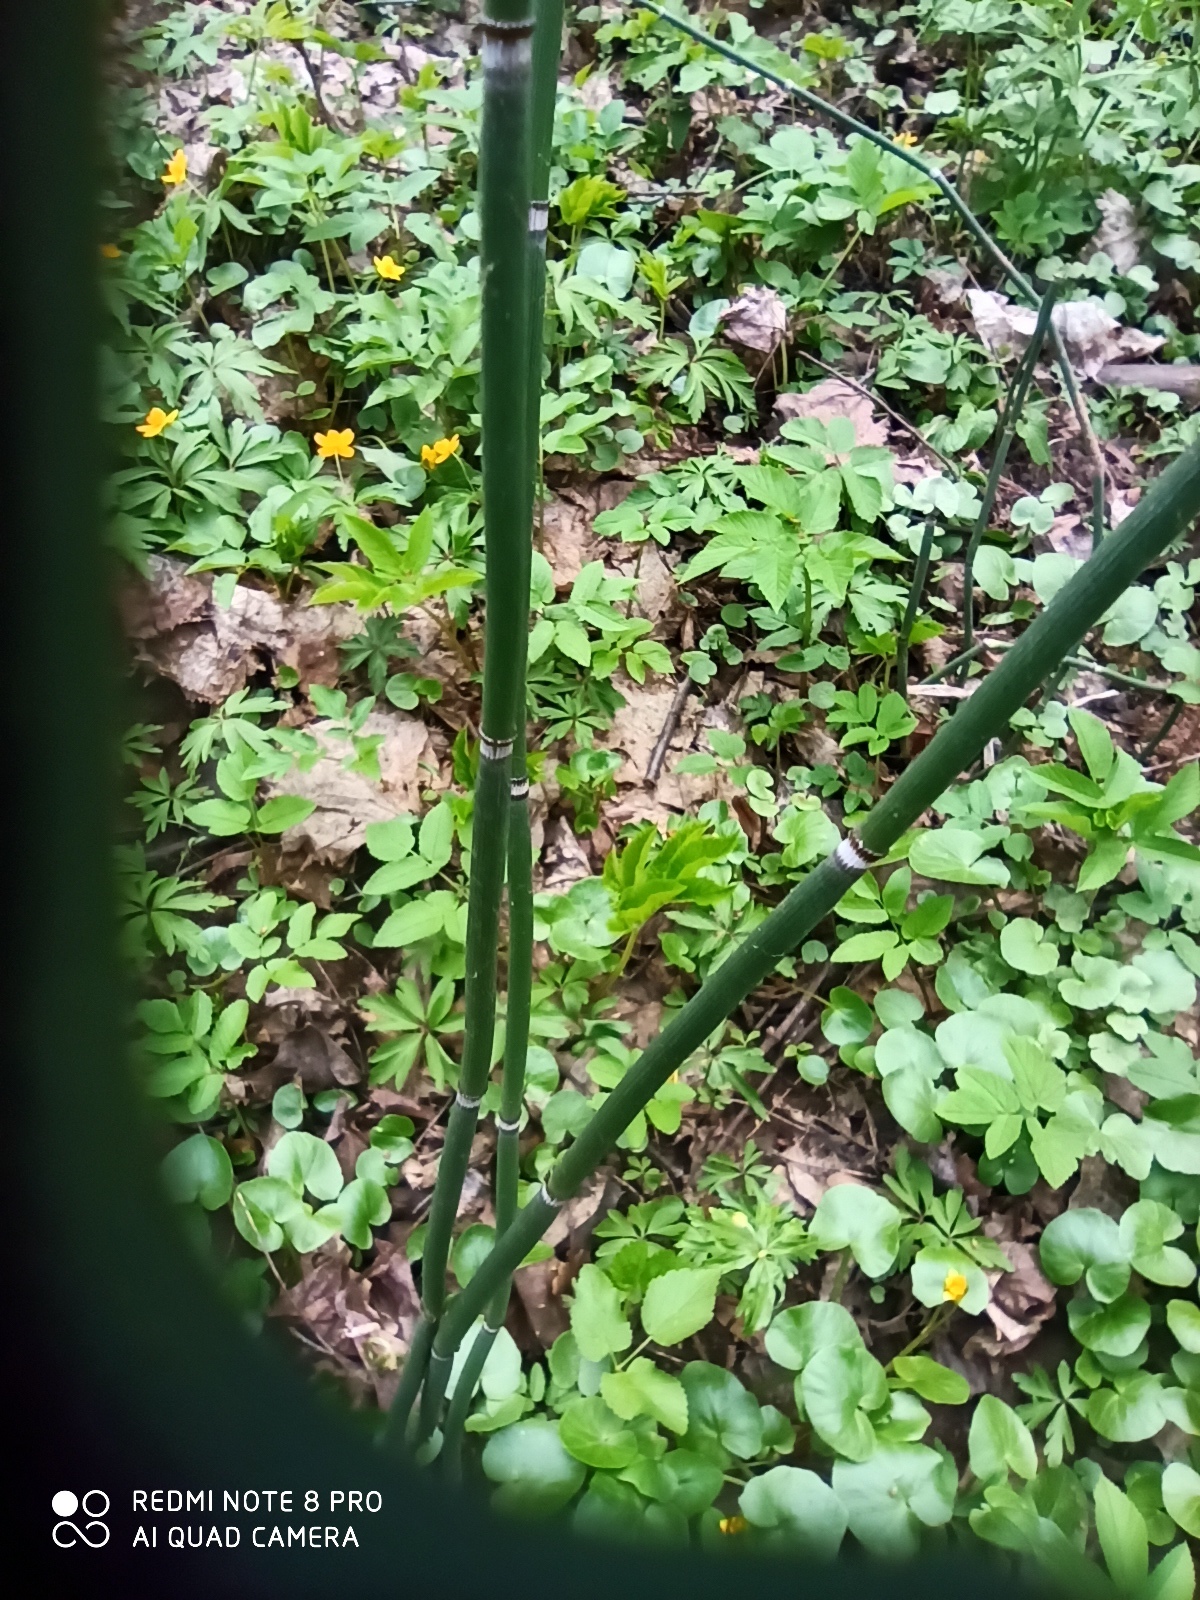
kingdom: Plantae
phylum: Tracheophyta
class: Polypodiopsida
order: Equisetales
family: Equisetaceae
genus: Equisetum
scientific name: Equisetum hyemale
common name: Rough horsetail
